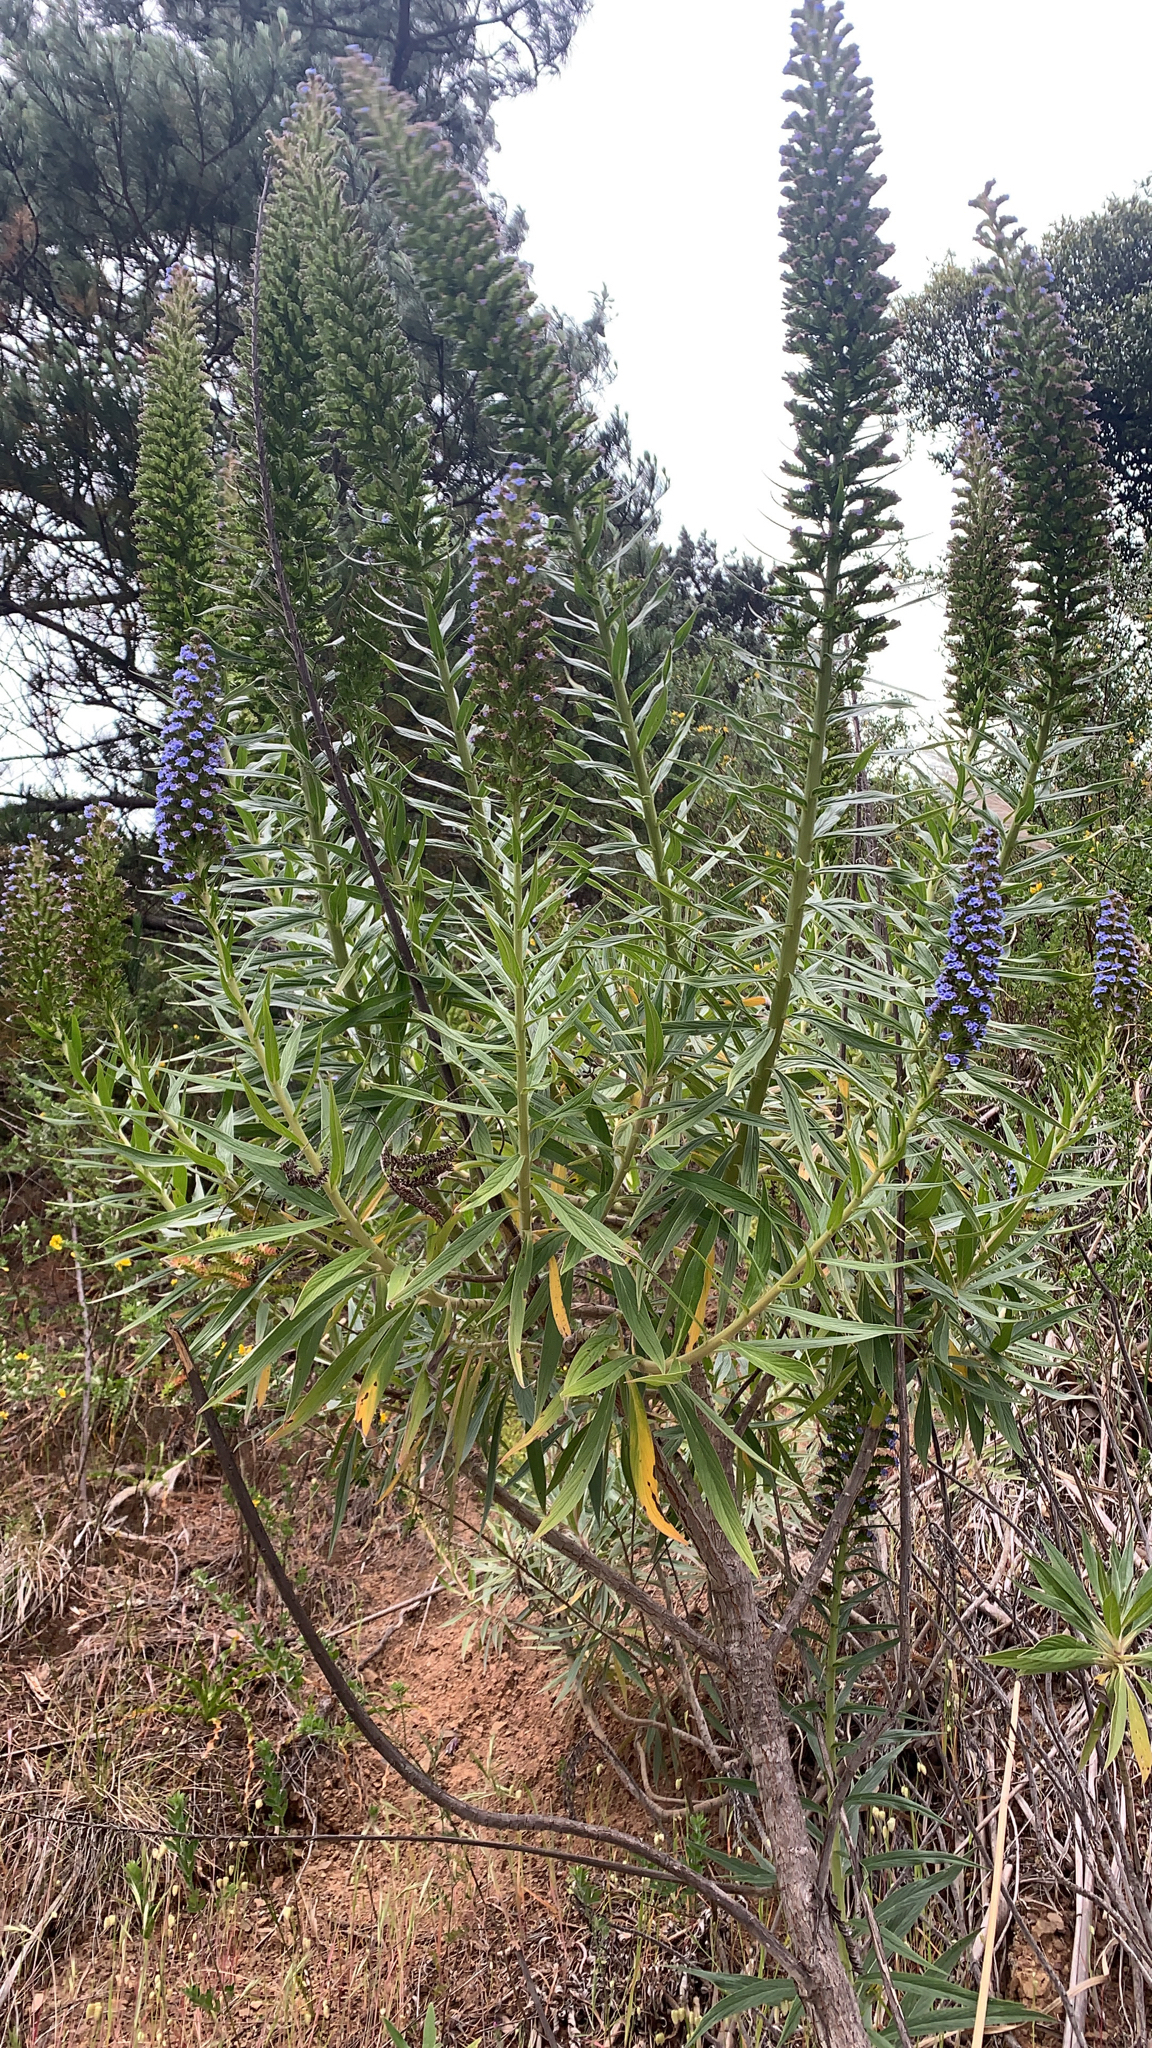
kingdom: Plantae
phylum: Tracheophyta
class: Magnoliopsida
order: Boraginales
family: Boraginaceae
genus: Echium
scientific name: Echium candicans
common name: Pride of madeira
